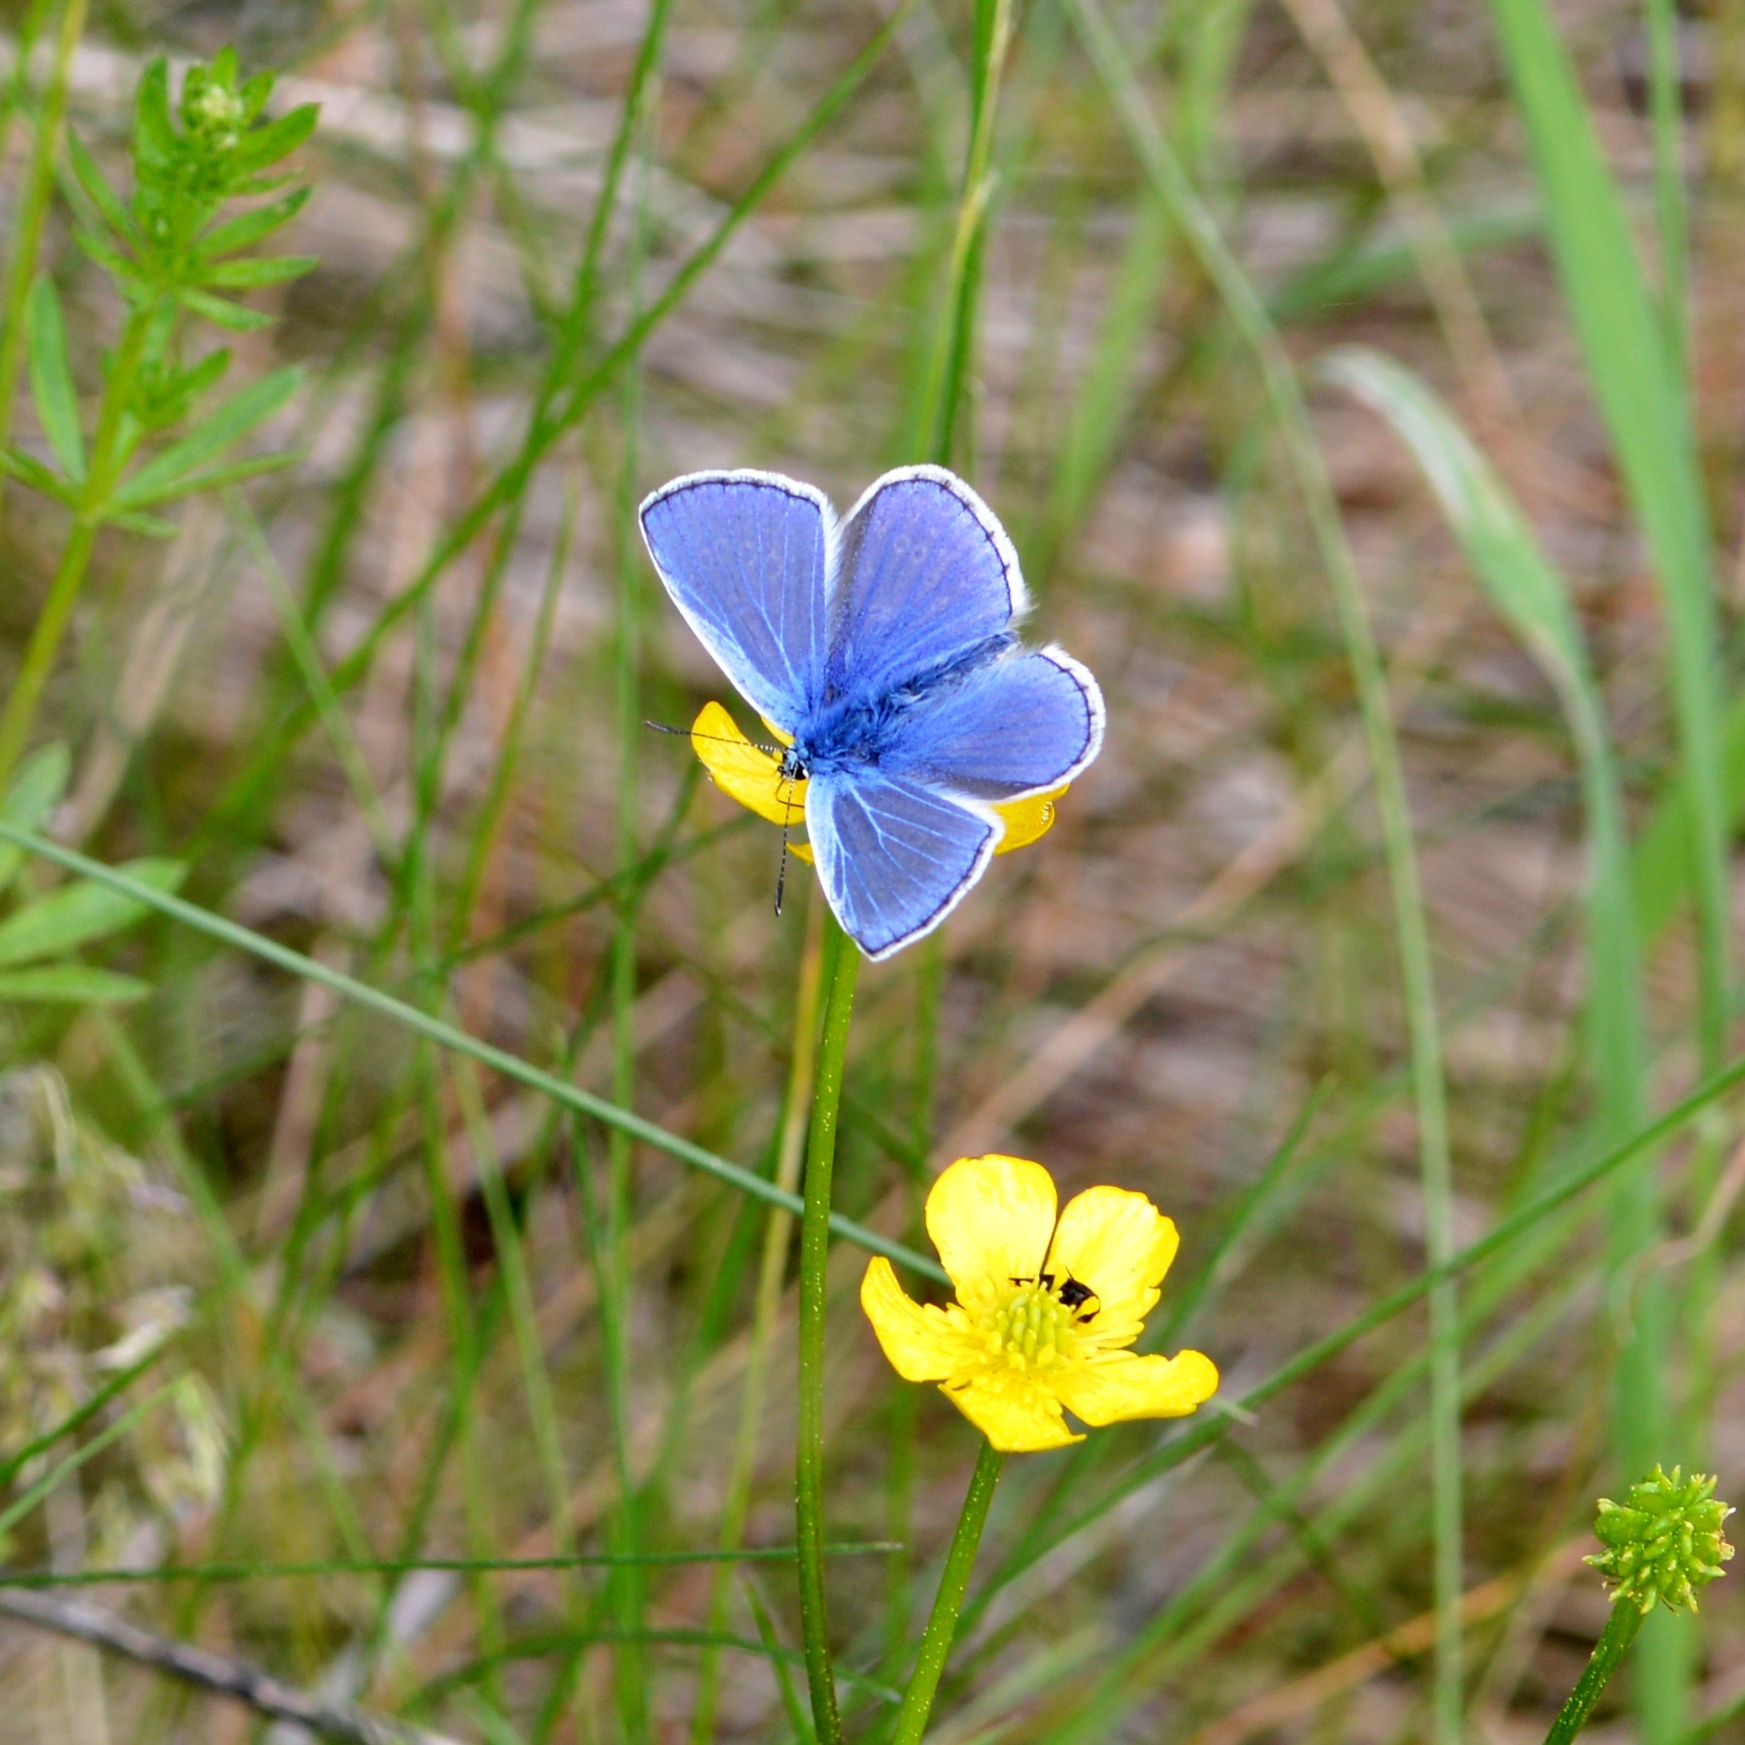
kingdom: Animalia
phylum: Arthropoda
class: Insecta
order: Lepidoptera
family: Lycaenidae
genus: Polyommatus
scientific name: Polyommatus icarus
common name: Common blue
